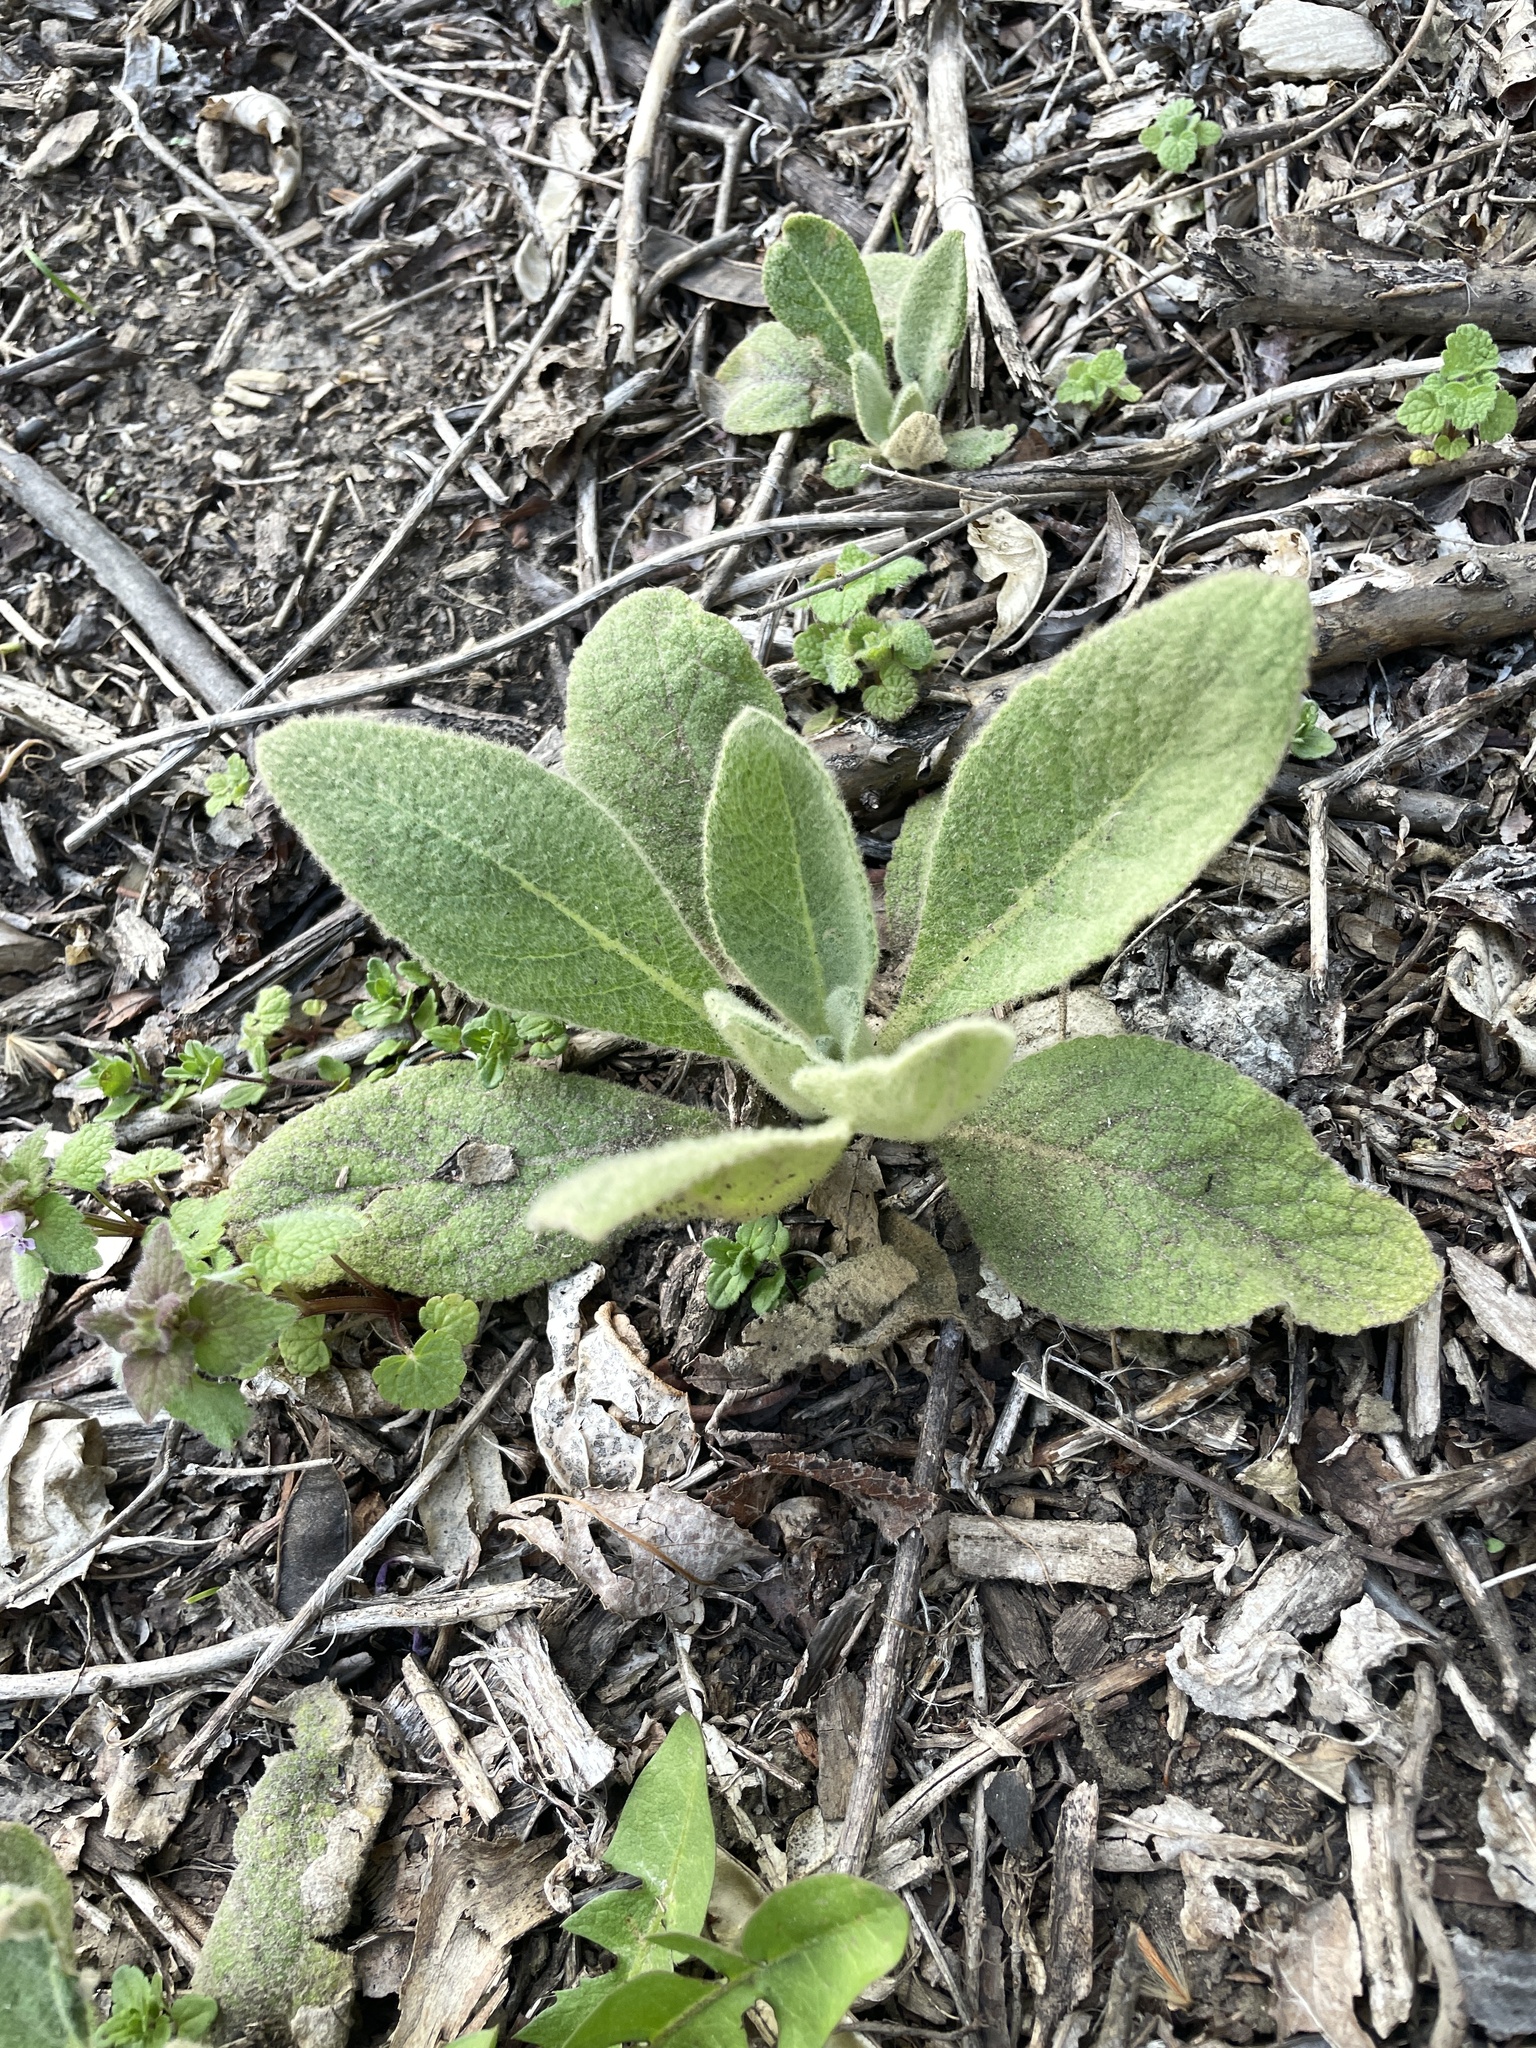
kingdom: Plantae
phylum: Tracheophyta
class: Magnoliopsida
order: Lamiales
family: Scrophulariaceae
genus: Verbascum
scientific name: Verbascum thapsus
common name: Common mullein
